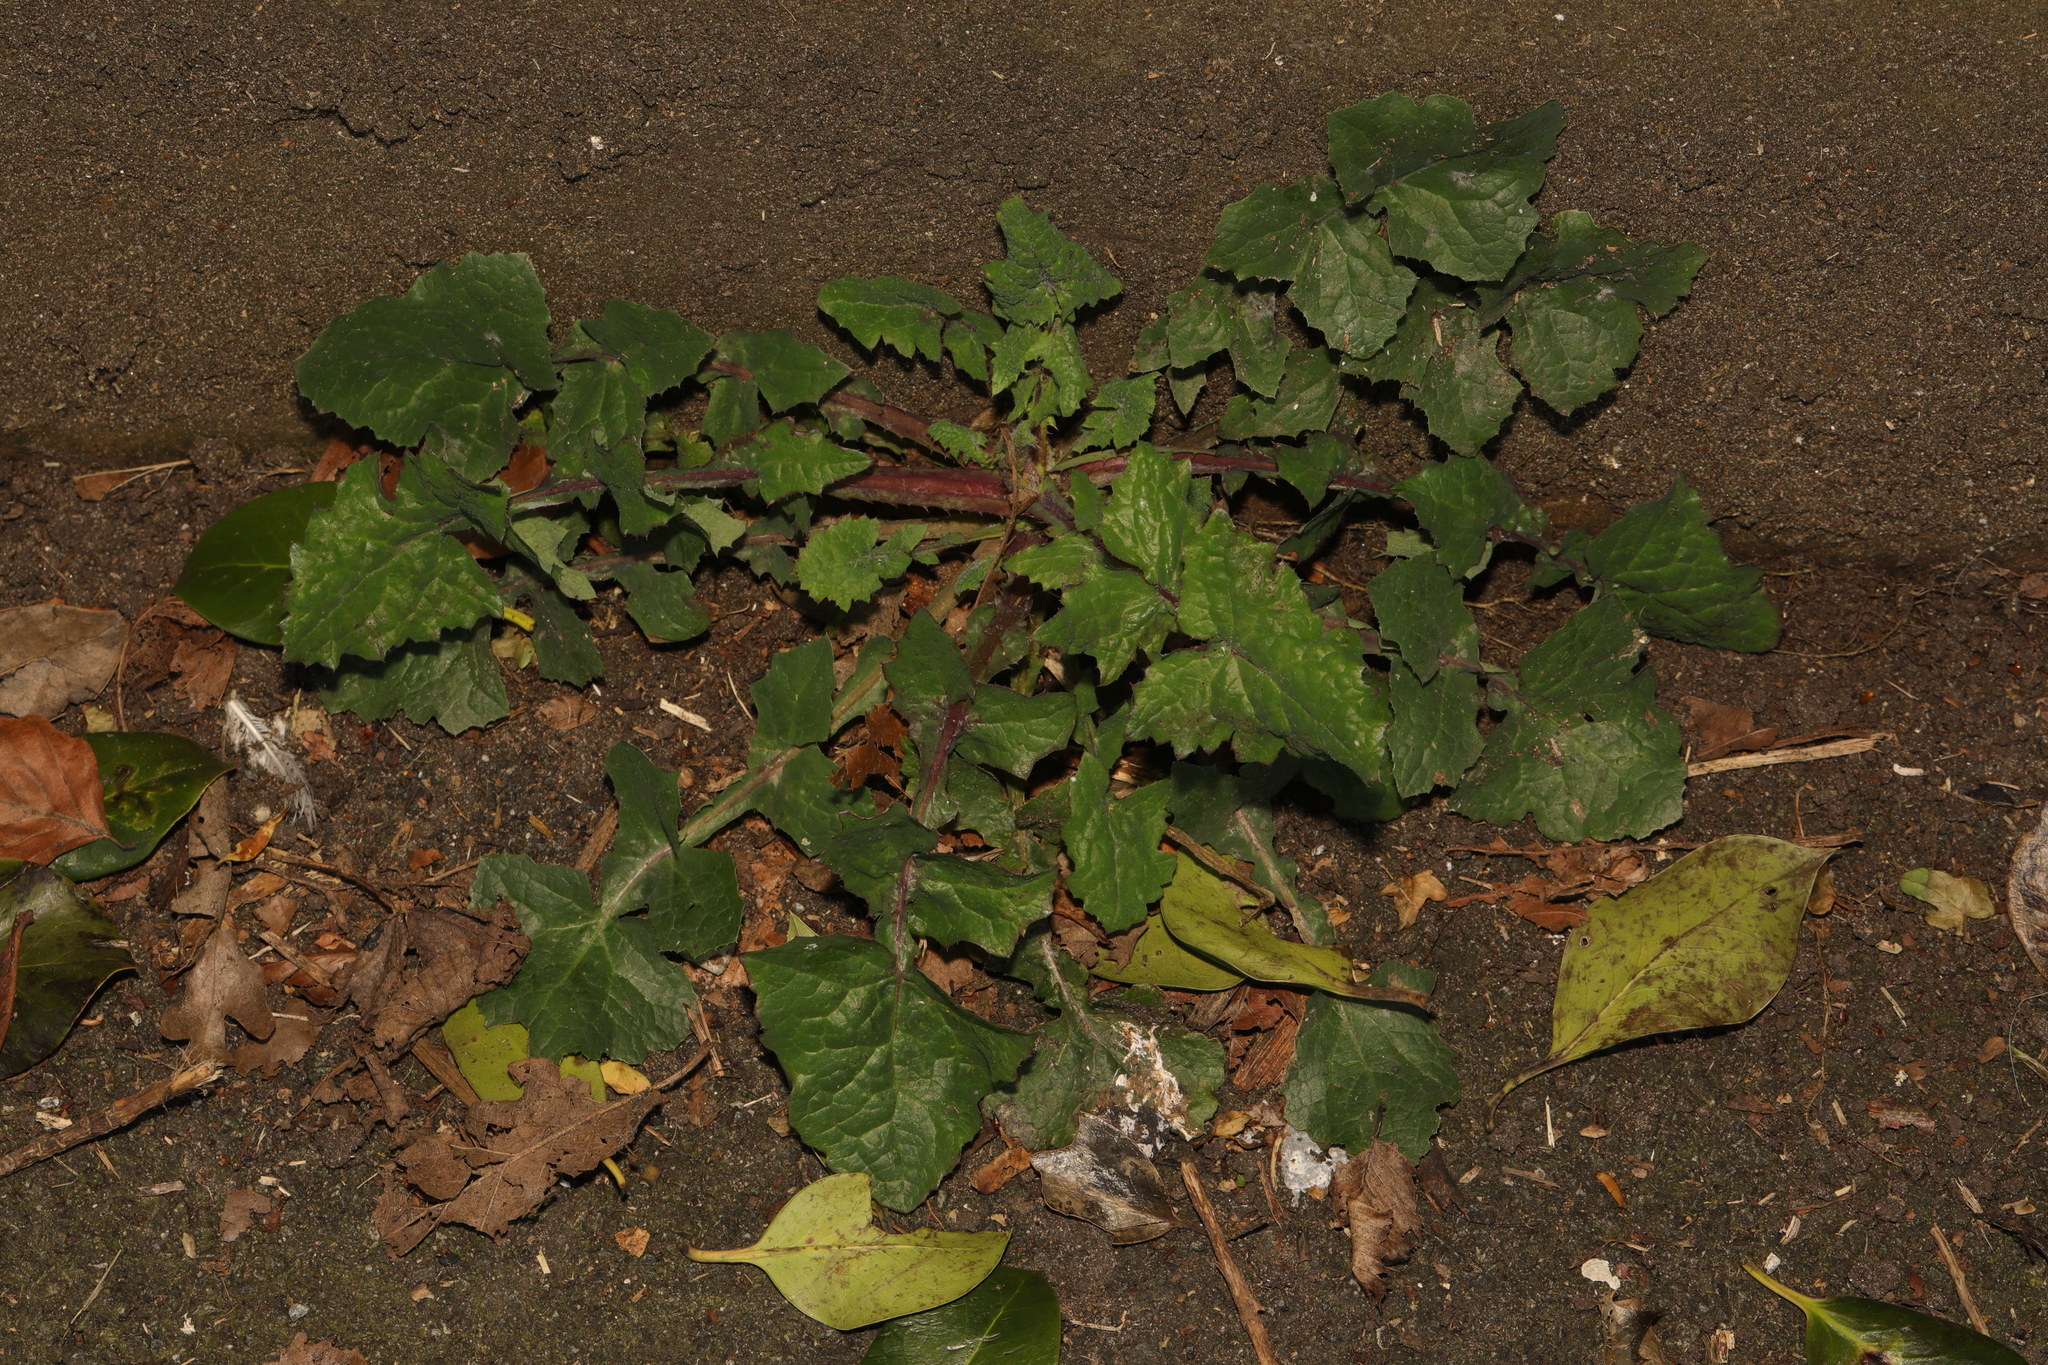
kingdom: Plantae
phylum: Tracheophyta
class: Magnoliopsida
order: Asterales
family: Asteraceae
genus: Sonchus
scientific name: Sonchus oleraceus
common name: Common sowthistle
